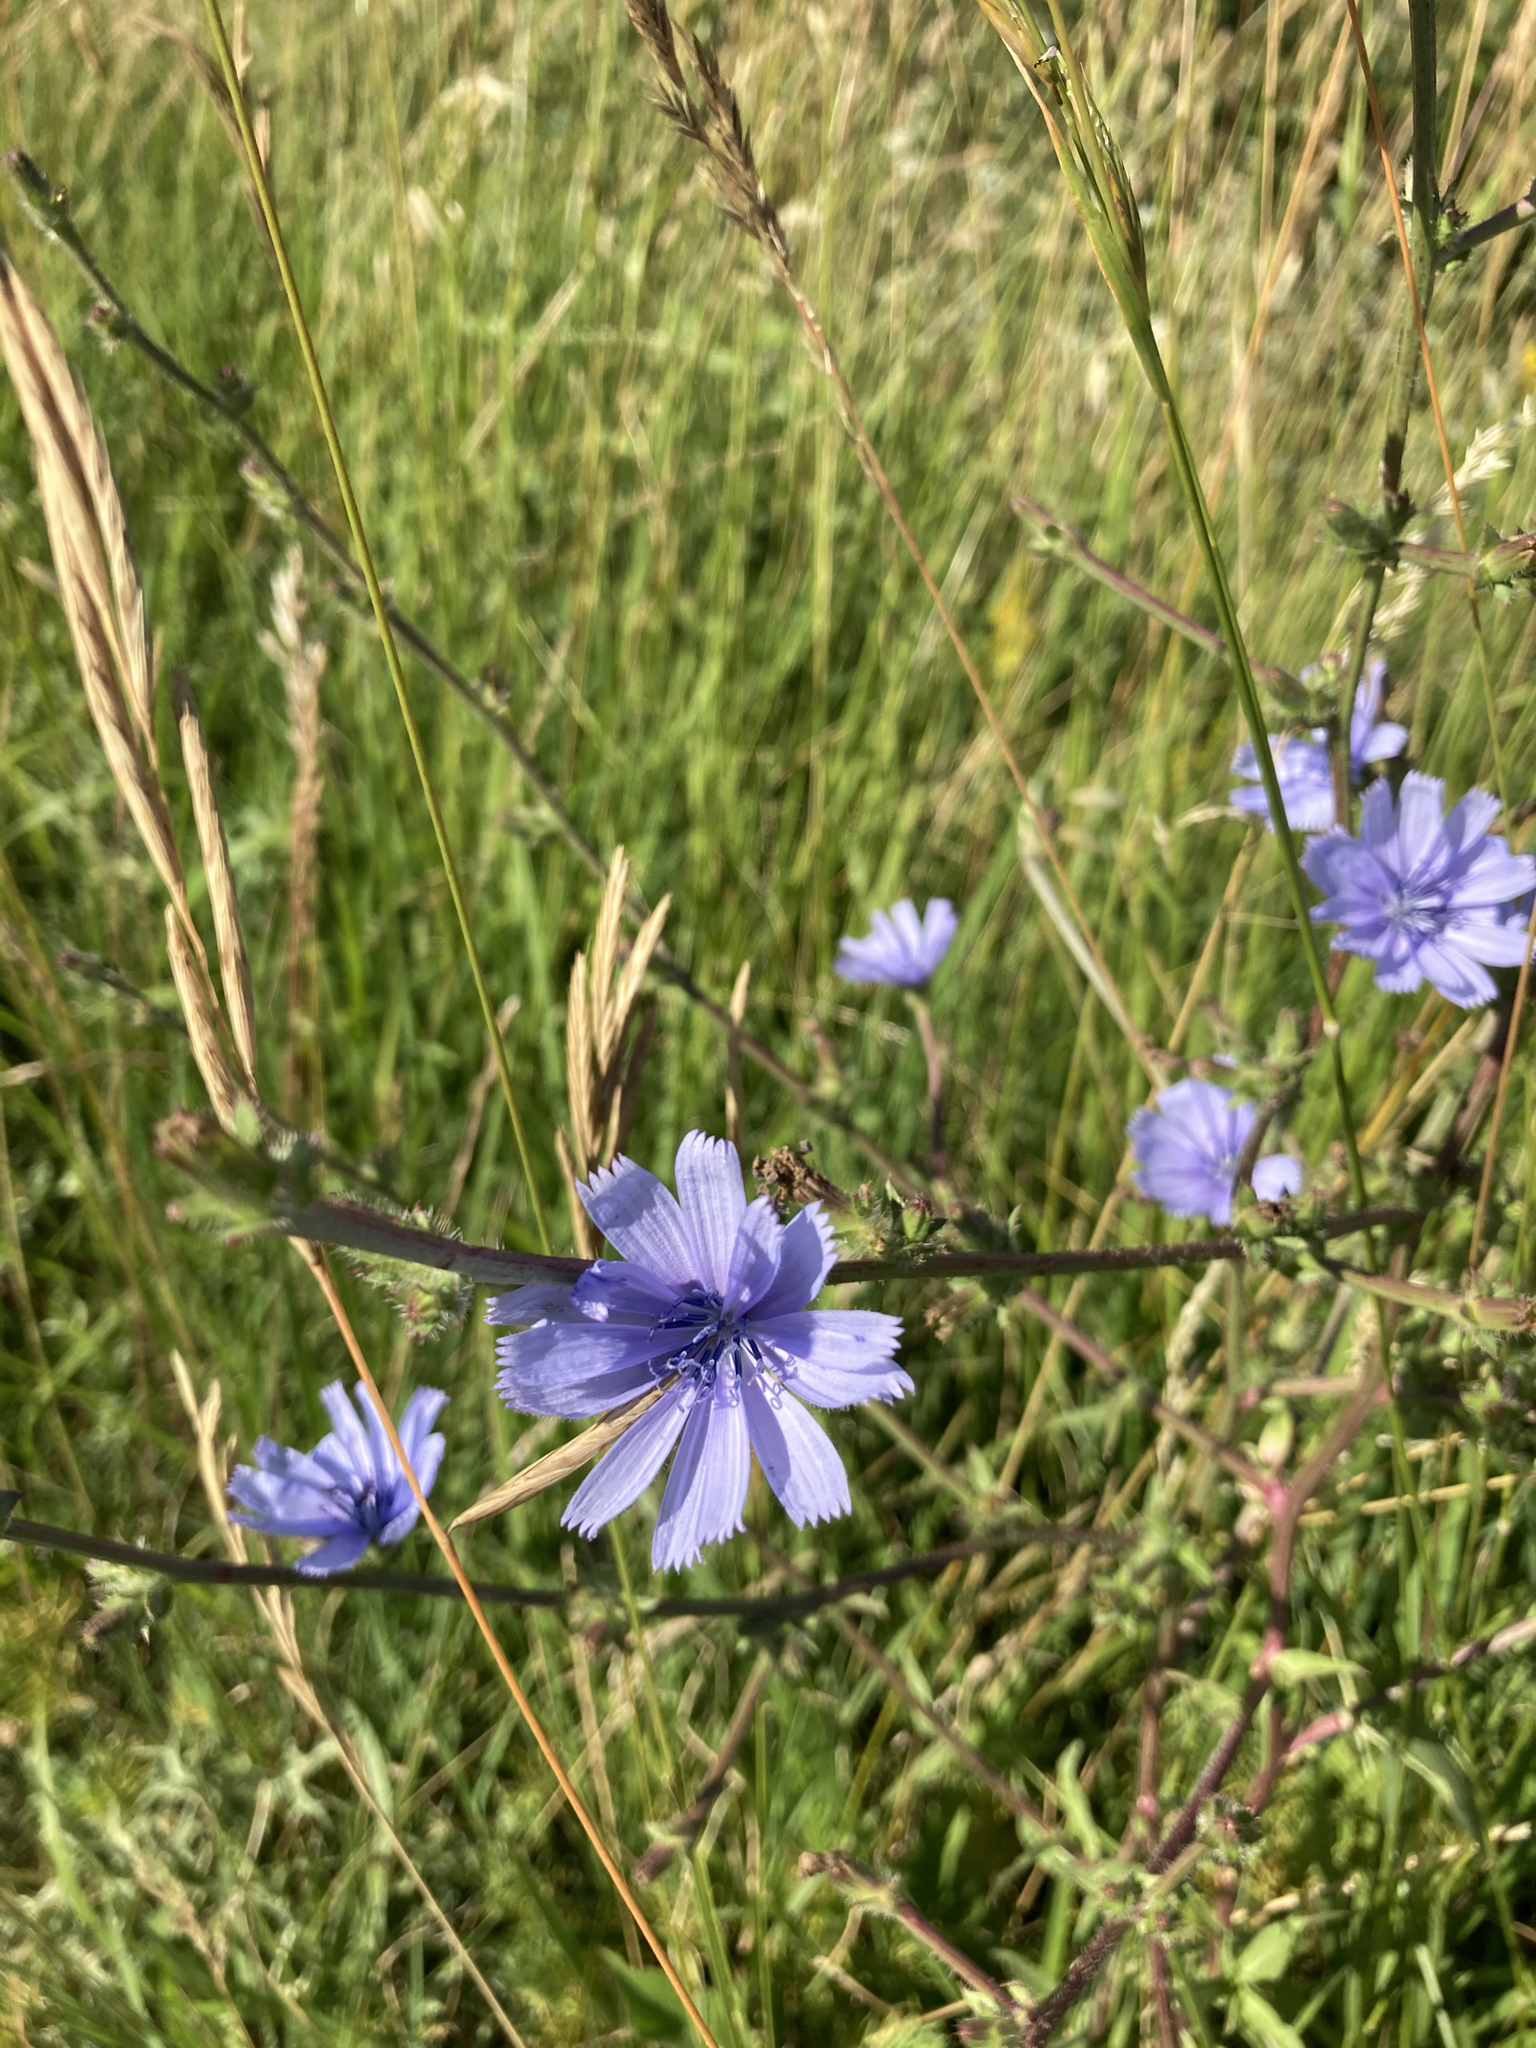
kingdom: Plantae
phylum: Tracheophyta
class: Magnoliopsida
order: Asterales
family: Asteraceae
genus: Cichorium
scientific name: Cichorium intybus
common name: Chicory
